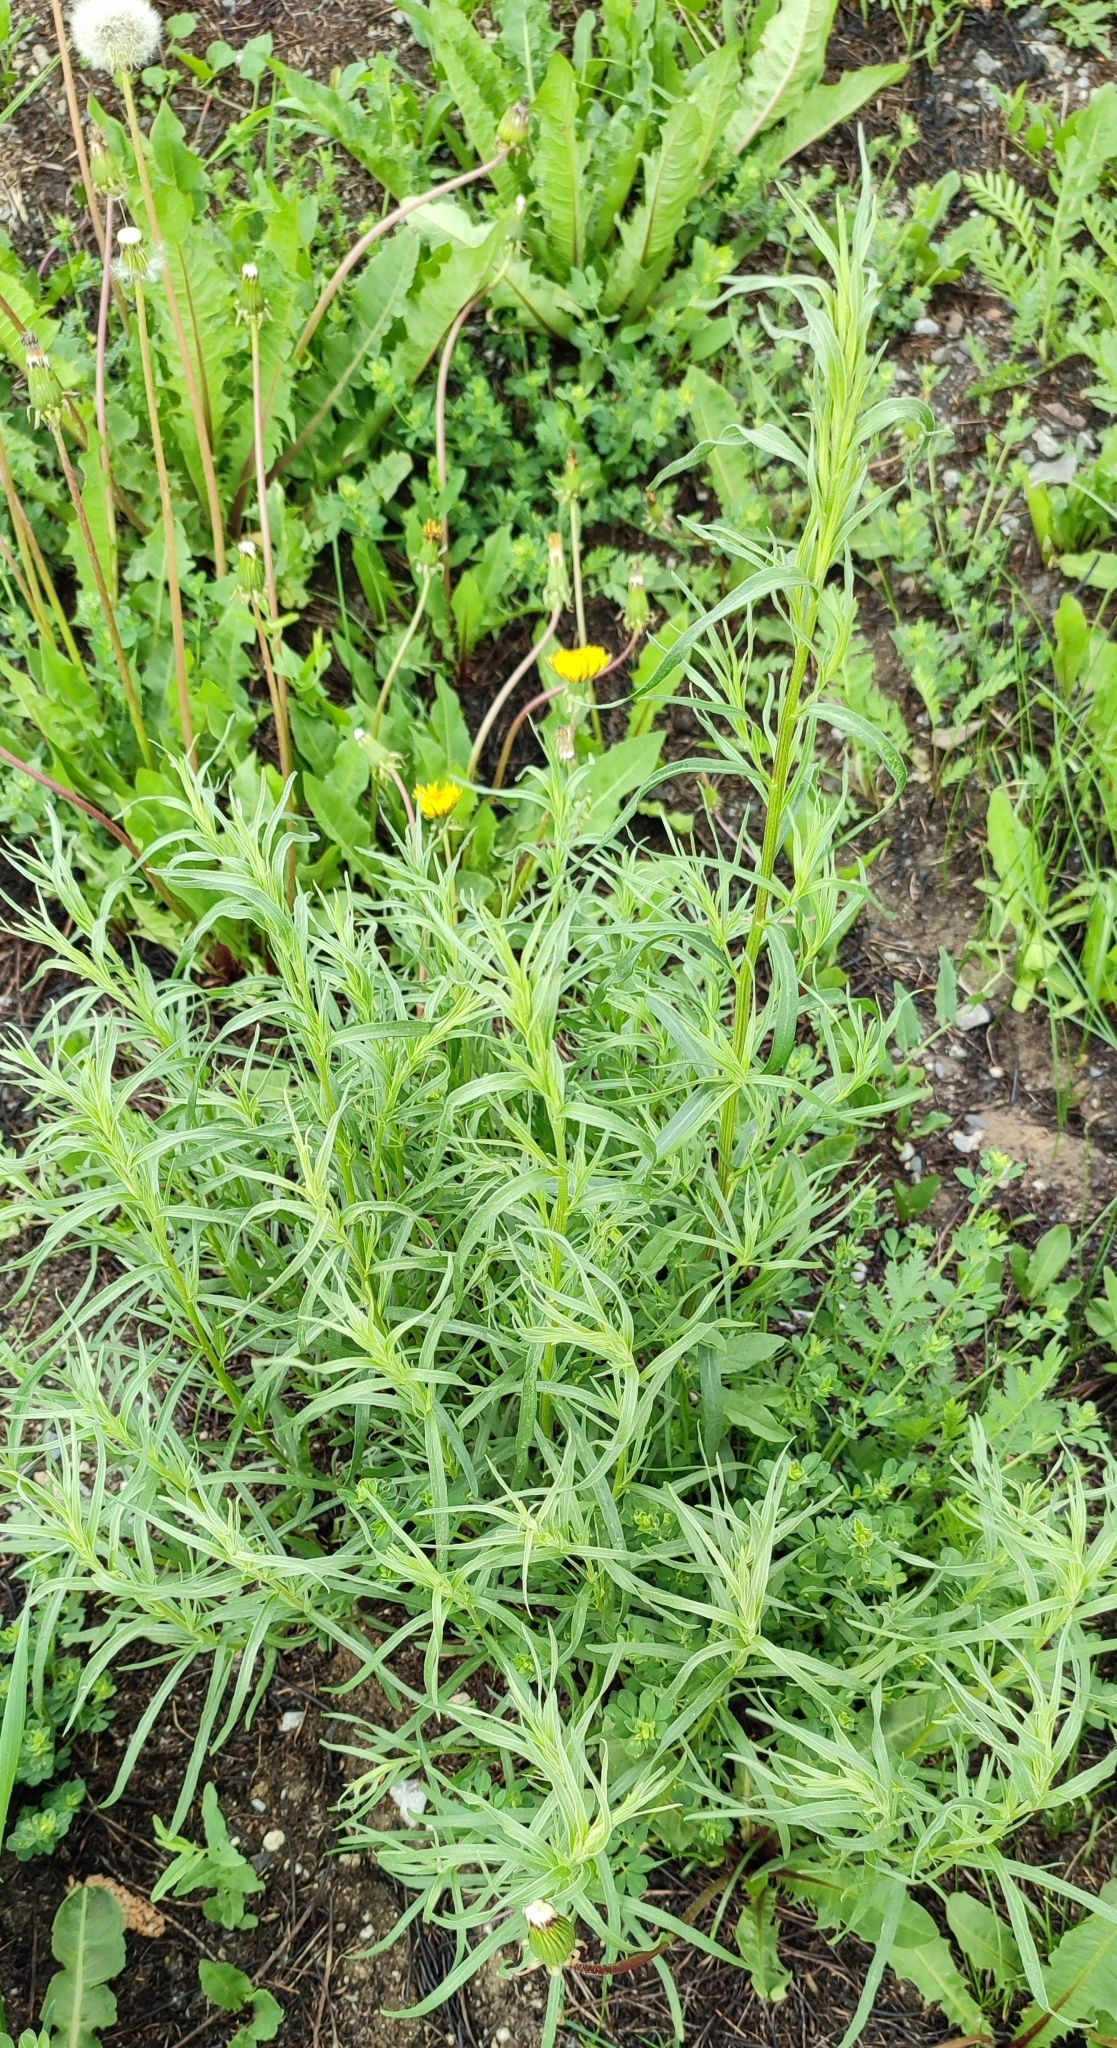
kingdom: Plantae
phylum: Tracheophyta
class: Magnoliopsida
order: Asterales
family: Asteraceae
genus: Artemisia
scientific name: Artemisia dracunculus
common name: Tarragon
